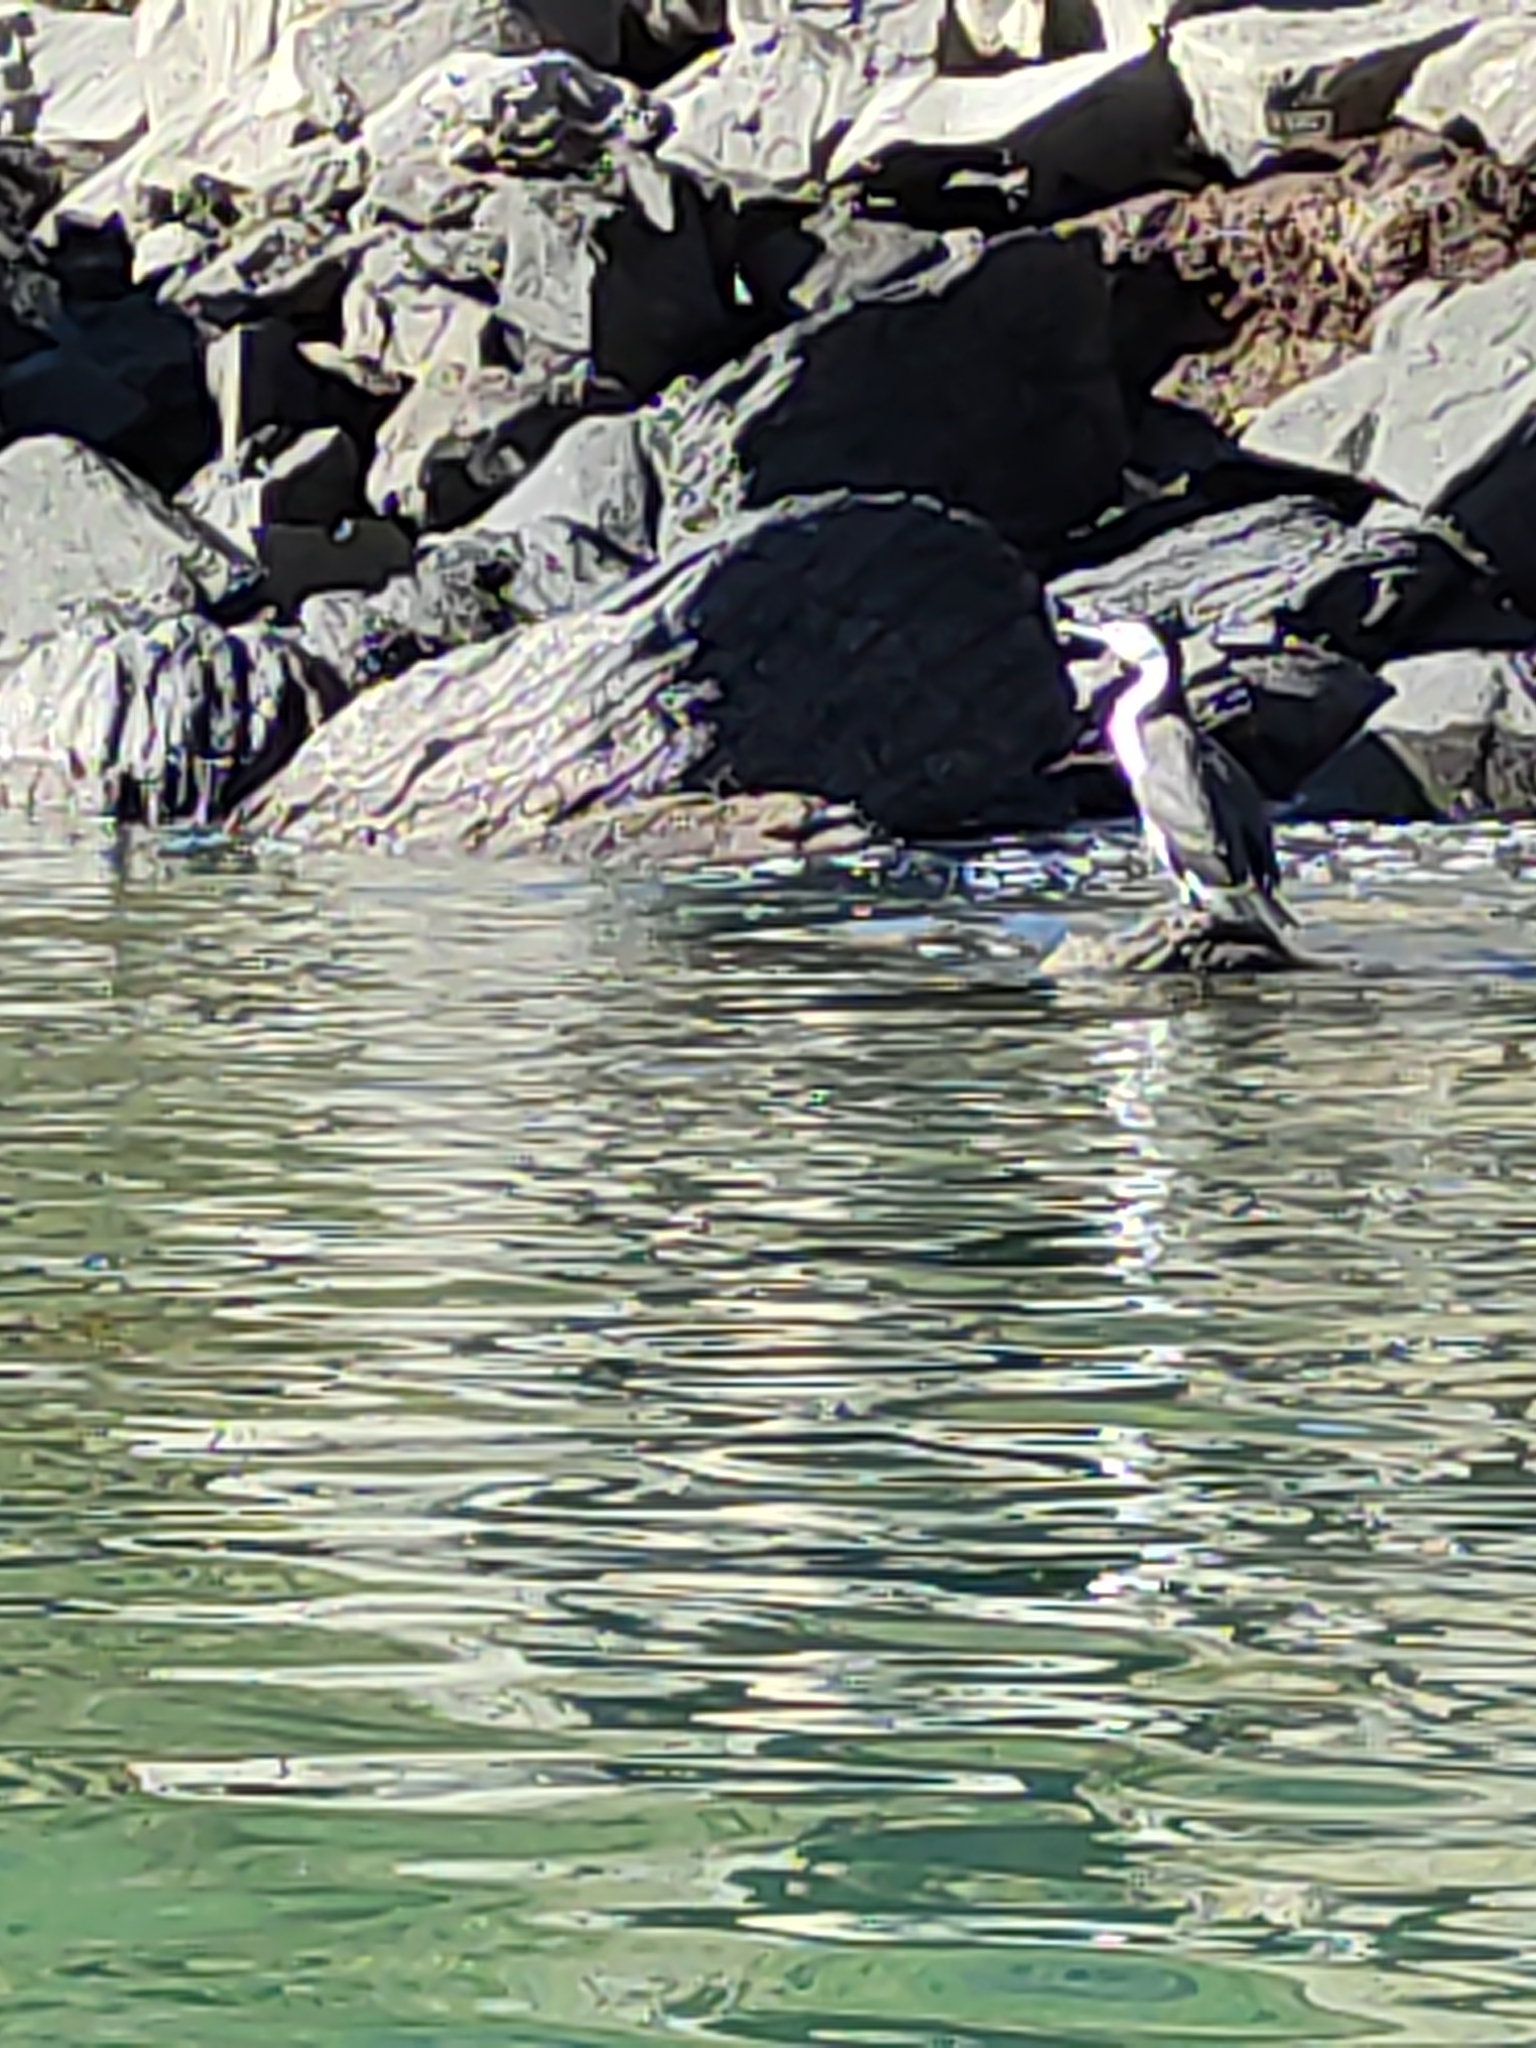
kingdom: Animalia
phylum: Chordata
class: Aves
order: Suliformes
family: Phalacrocoracidae
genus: Phalacrocorax
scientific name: Phalacrocorax varius
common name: Pied cormorant
